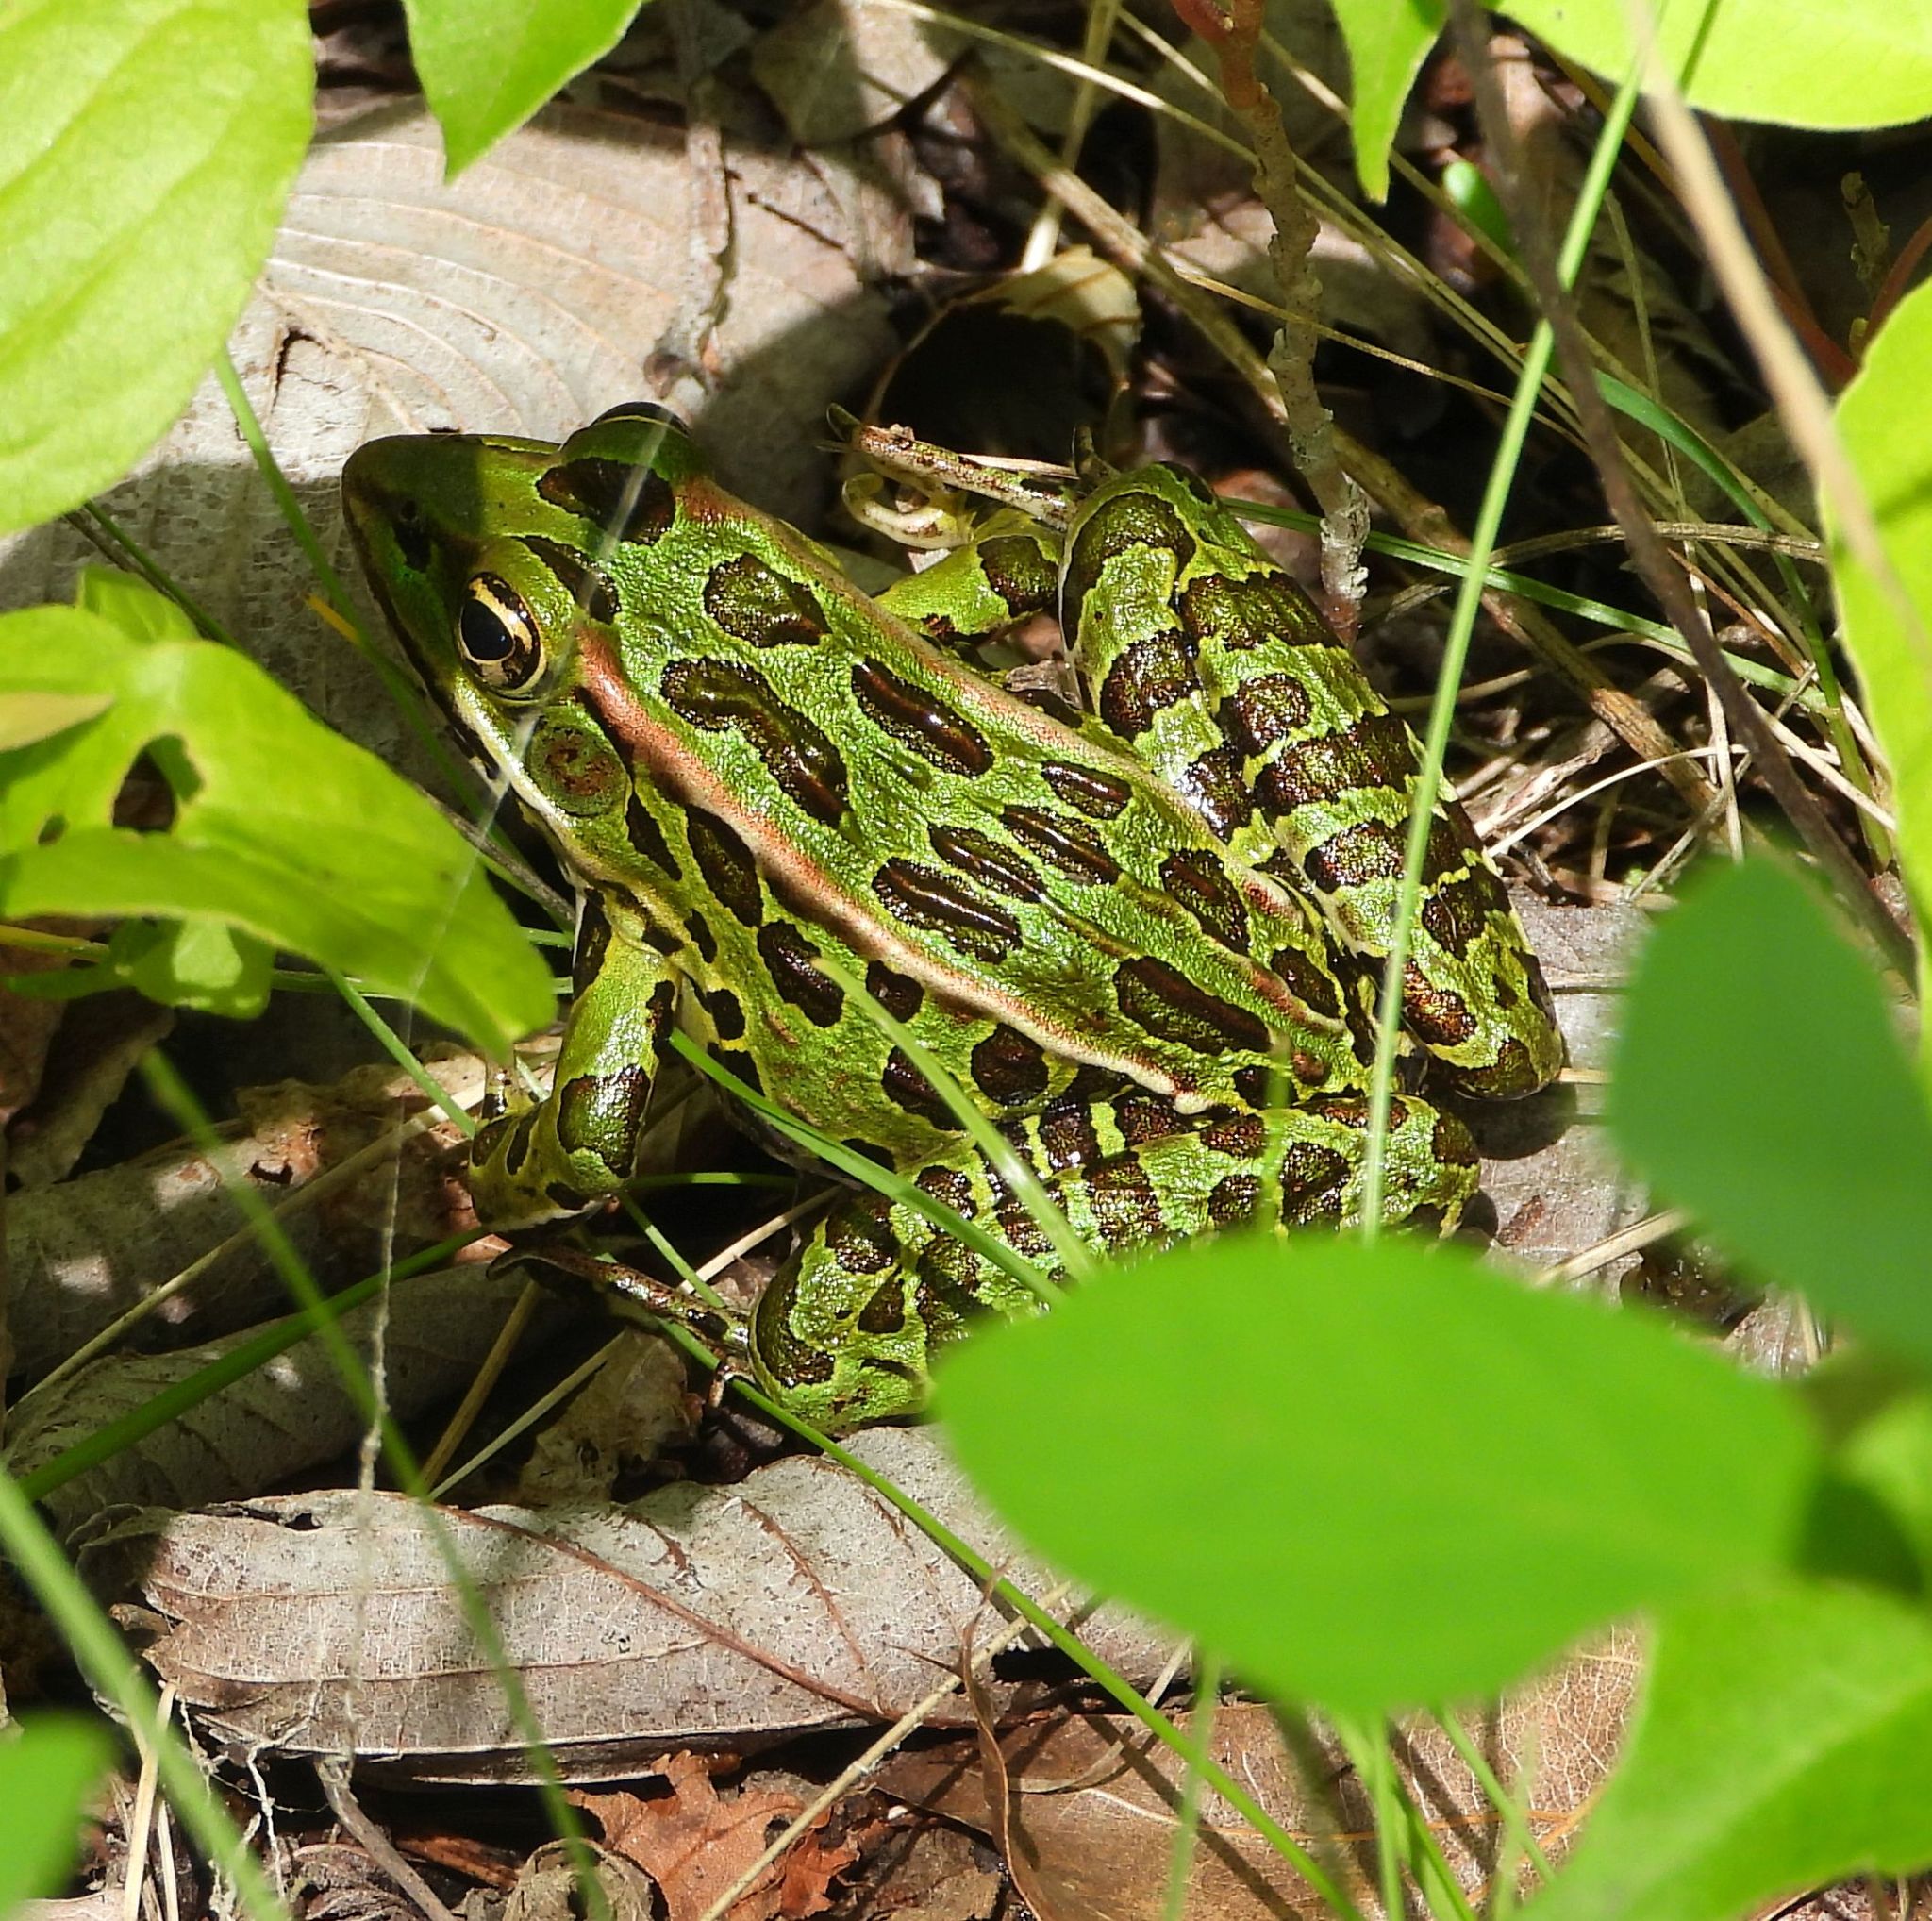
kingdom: Animalia
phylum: Chordata
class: Amphibia
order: Anura
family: Ranidae
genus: Lithobates
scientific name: Lithobates pipiens
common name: Northern leopard frog
